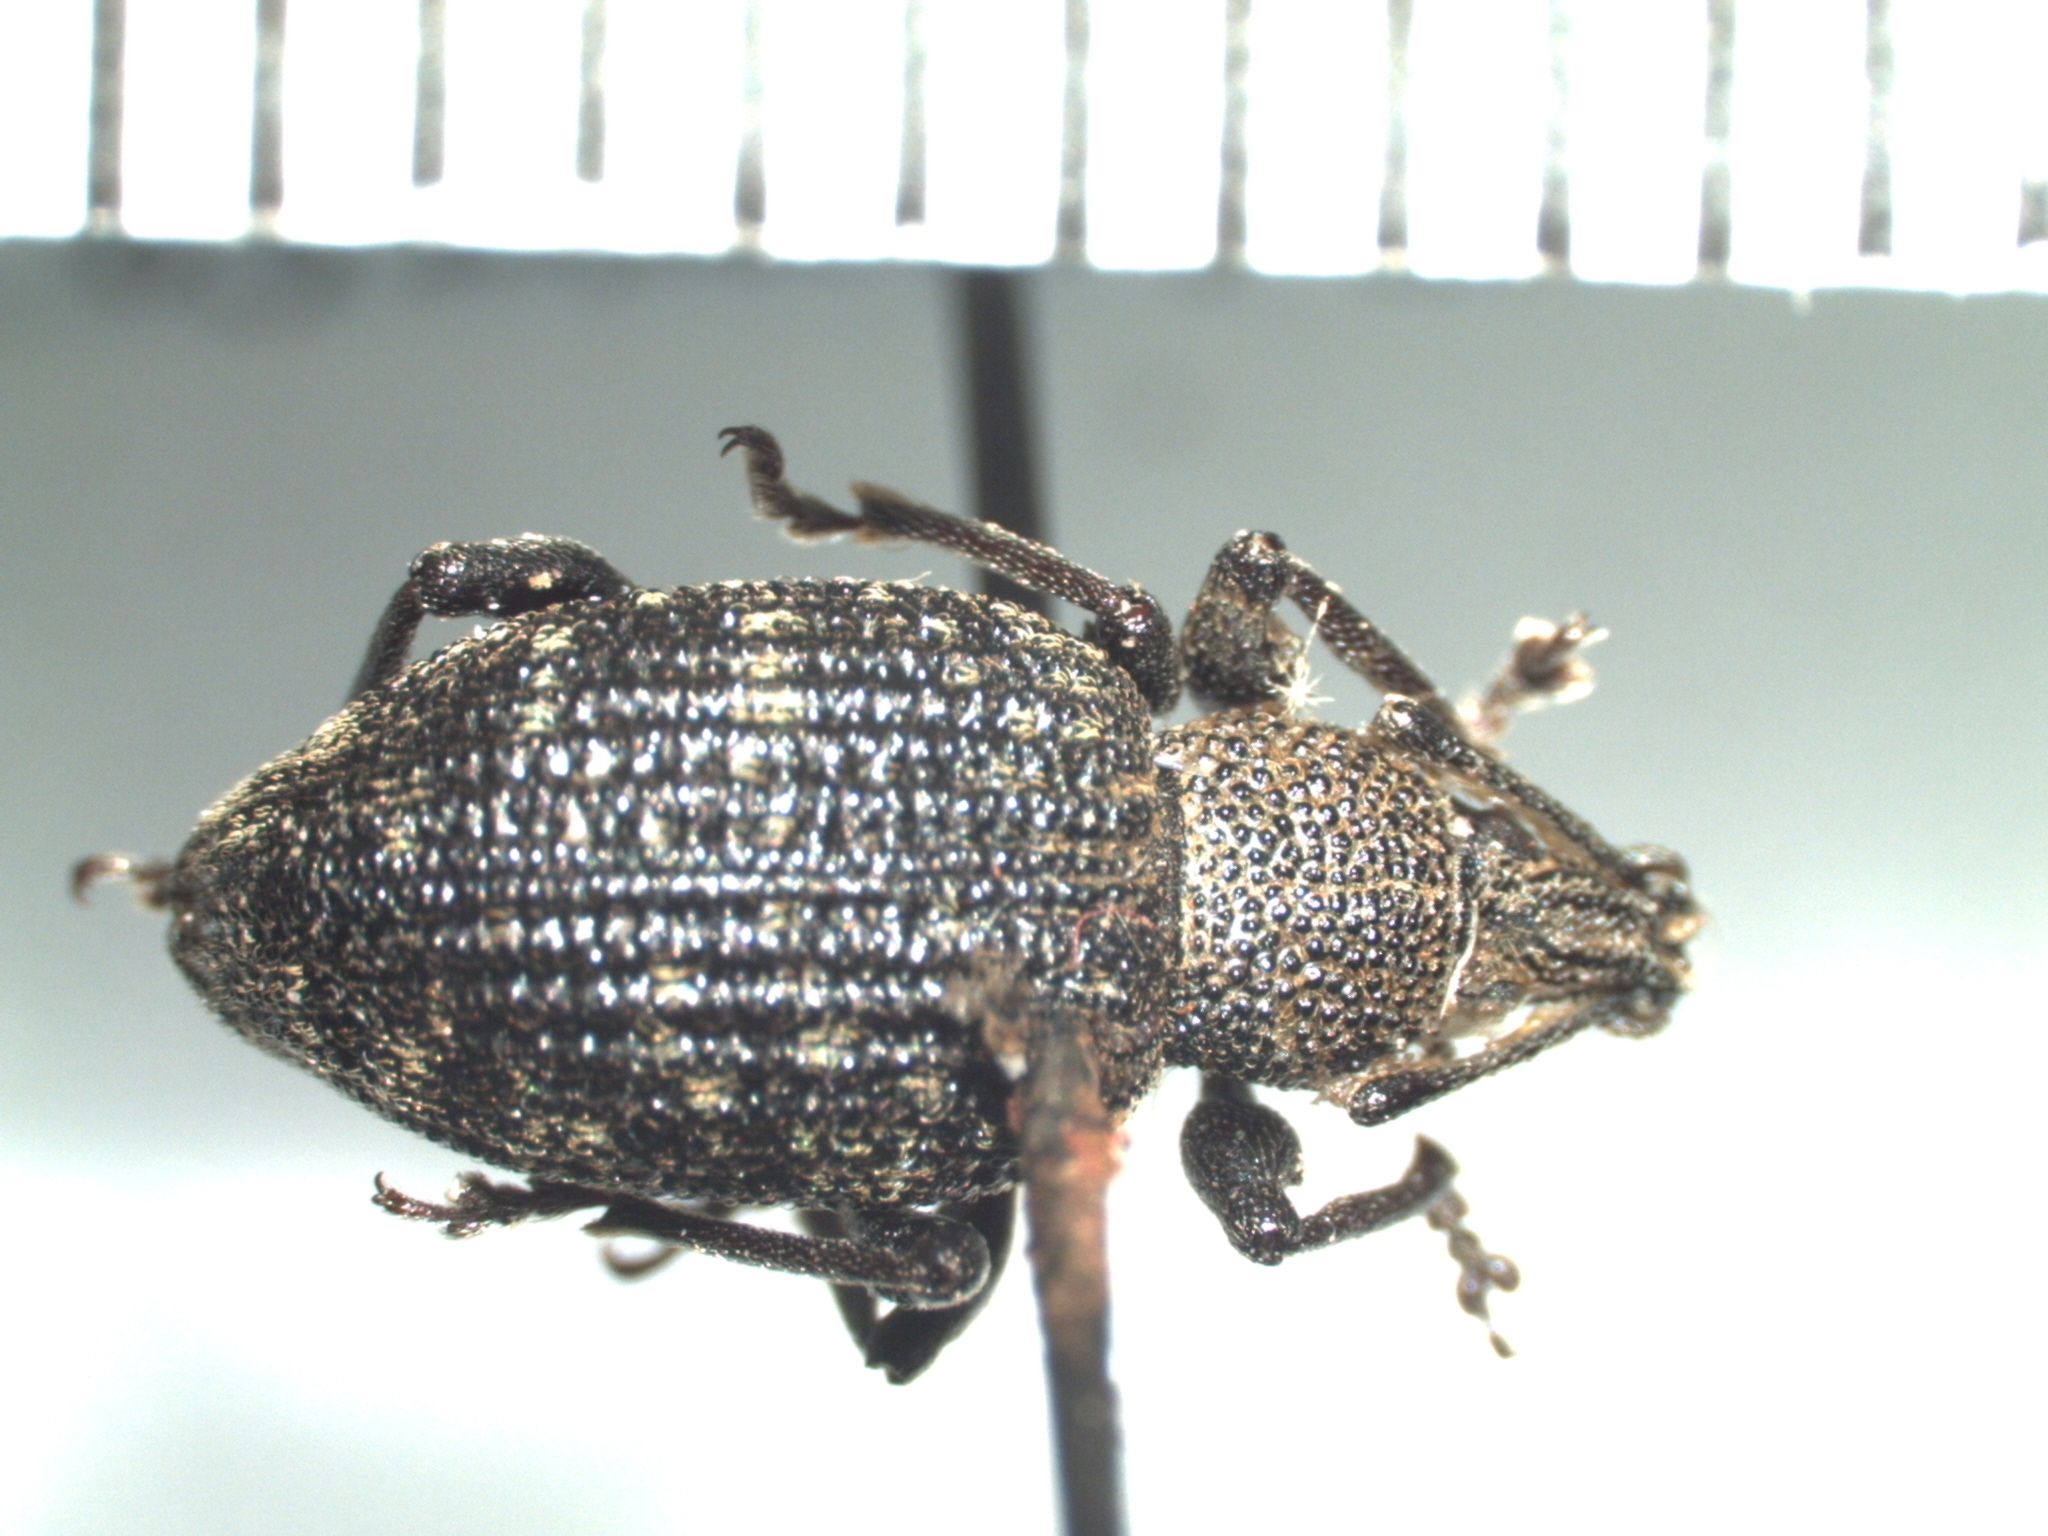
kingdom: Animalia
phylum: Arthropoda
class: Insecta
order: Coleoptera
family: Curculionidae
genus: Otiorhynchus
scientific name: Otiorhynchus sulcatus
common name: Black vine weevil
